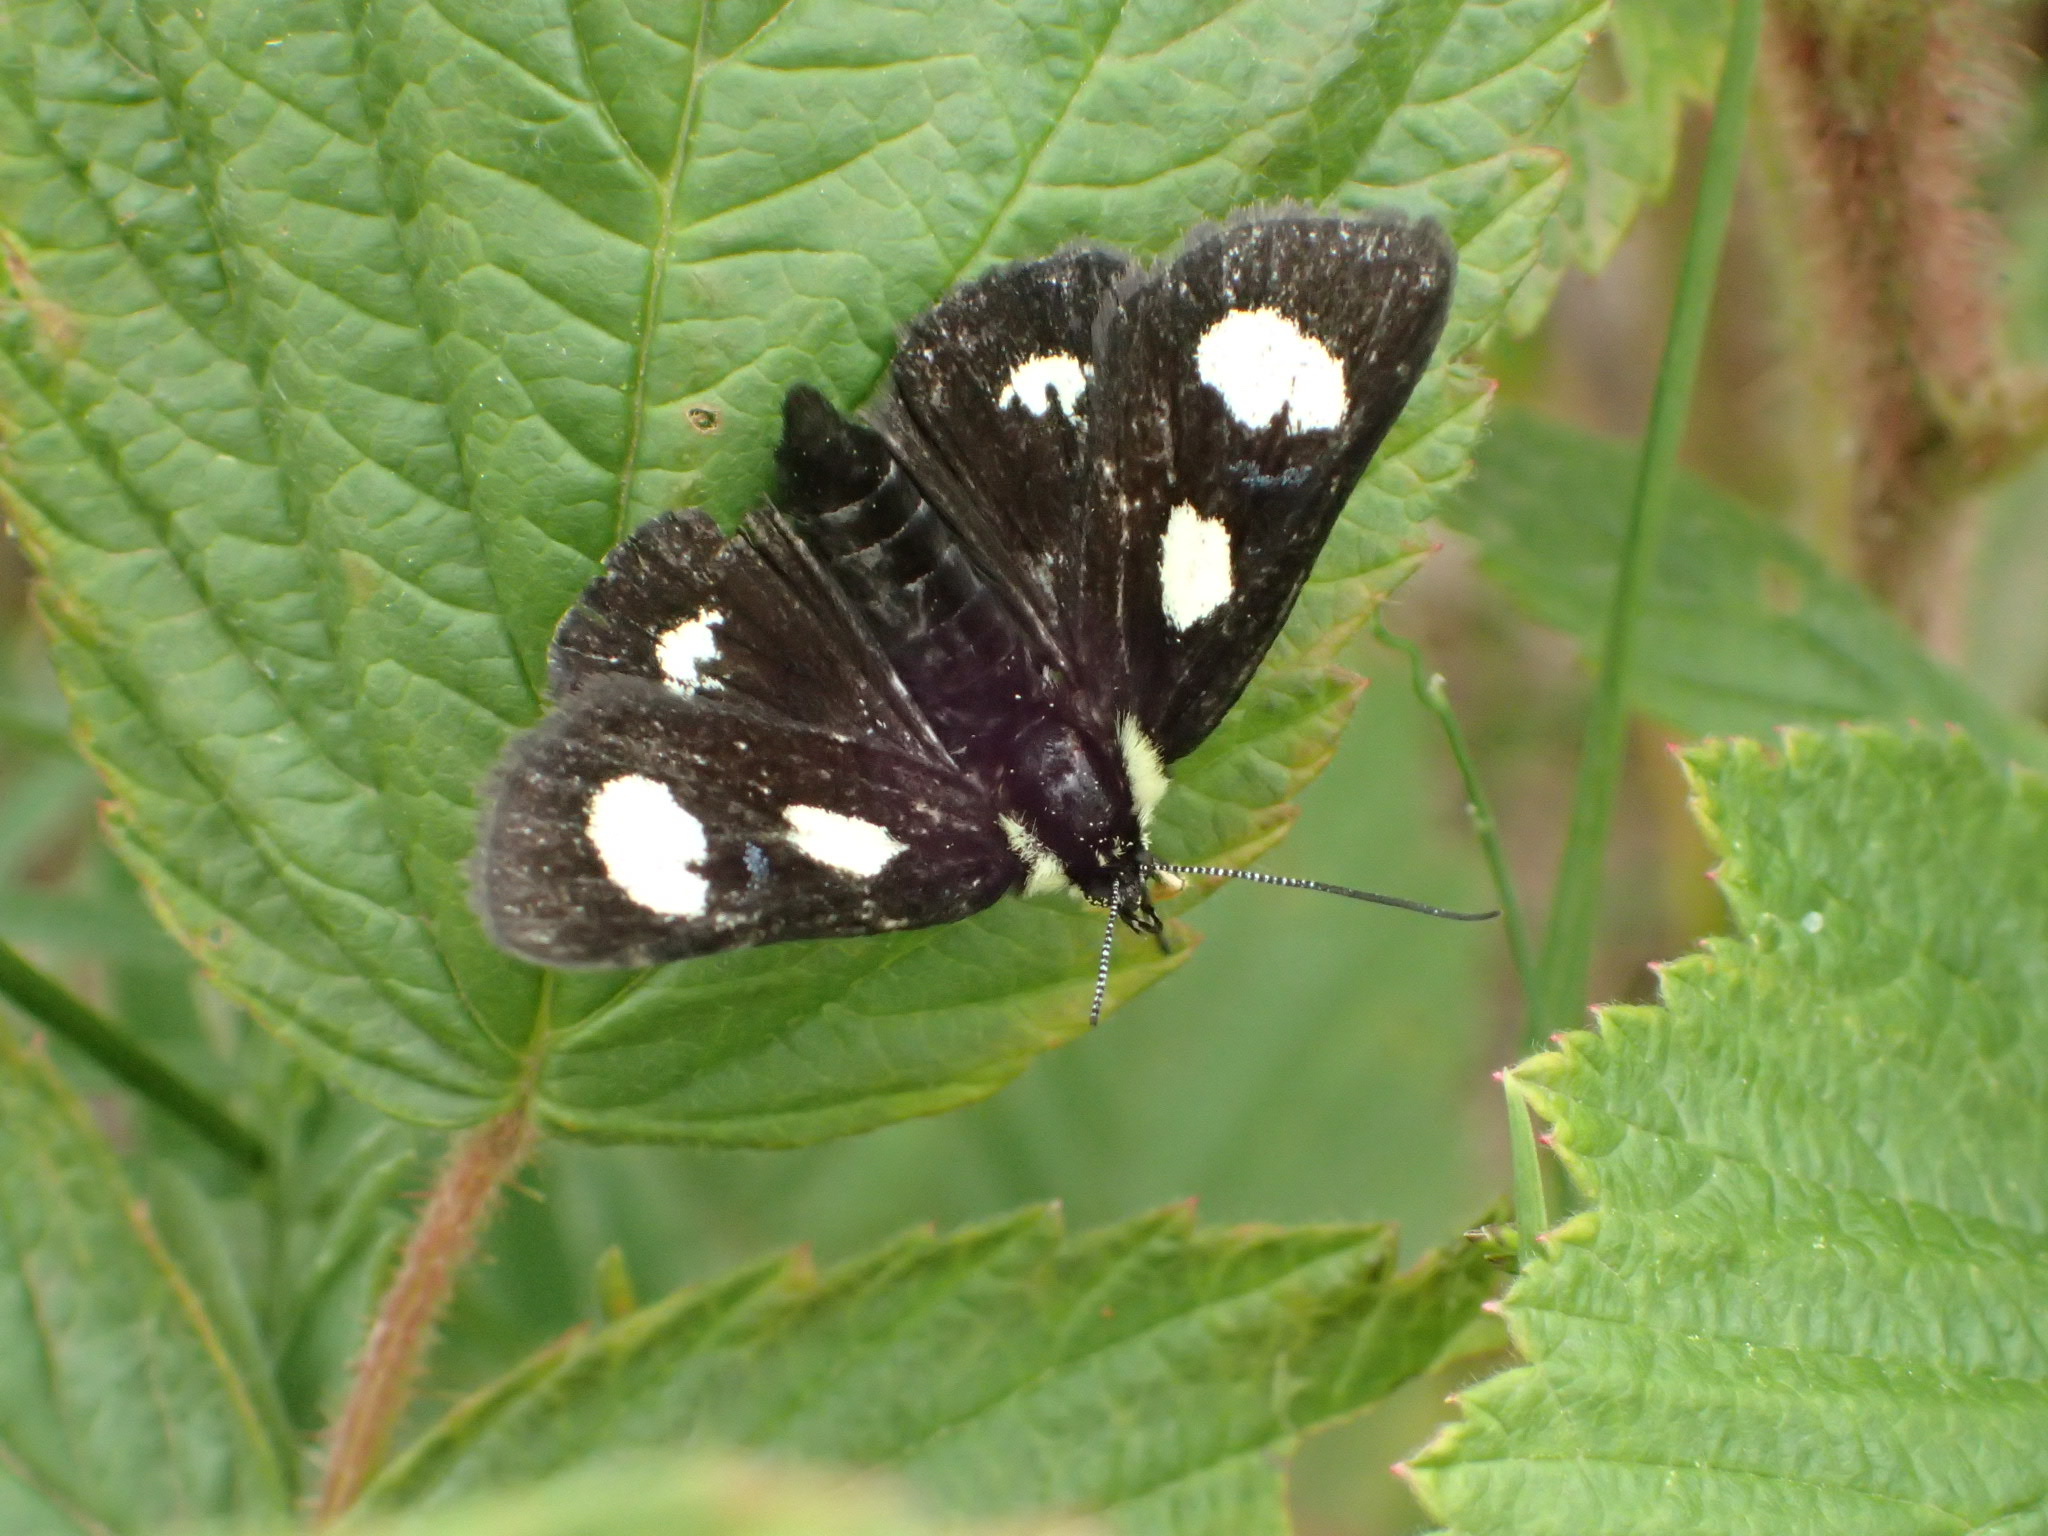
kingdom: Animalia
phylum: Arthropoda
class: Insecta
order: Lepidoptera
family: Noctuidae
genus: Alypia
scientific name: Alypia langtonii
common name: Fireweed caterpillar
